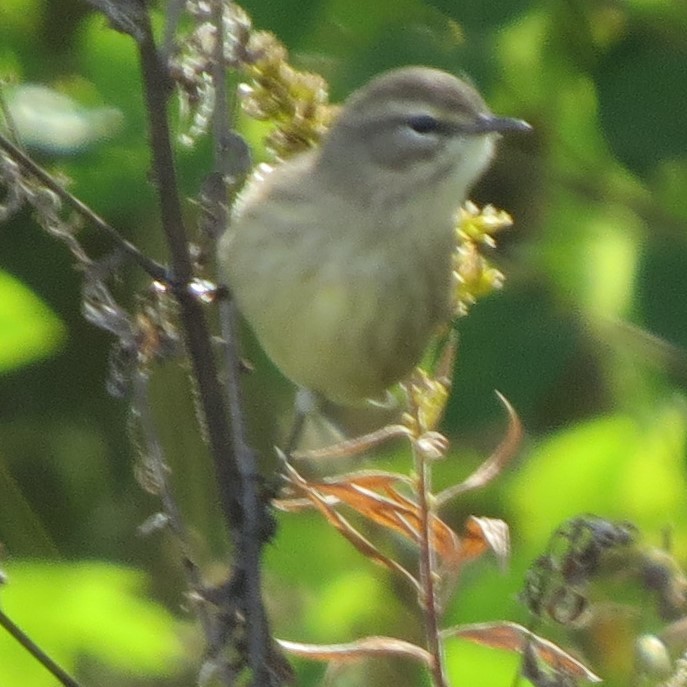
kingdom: Animalia
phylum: Chordata
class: Aves
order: Passeriformes
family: Parulidae
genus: Setophaga
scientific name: Setophaga palmarum
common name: Palm warbler
